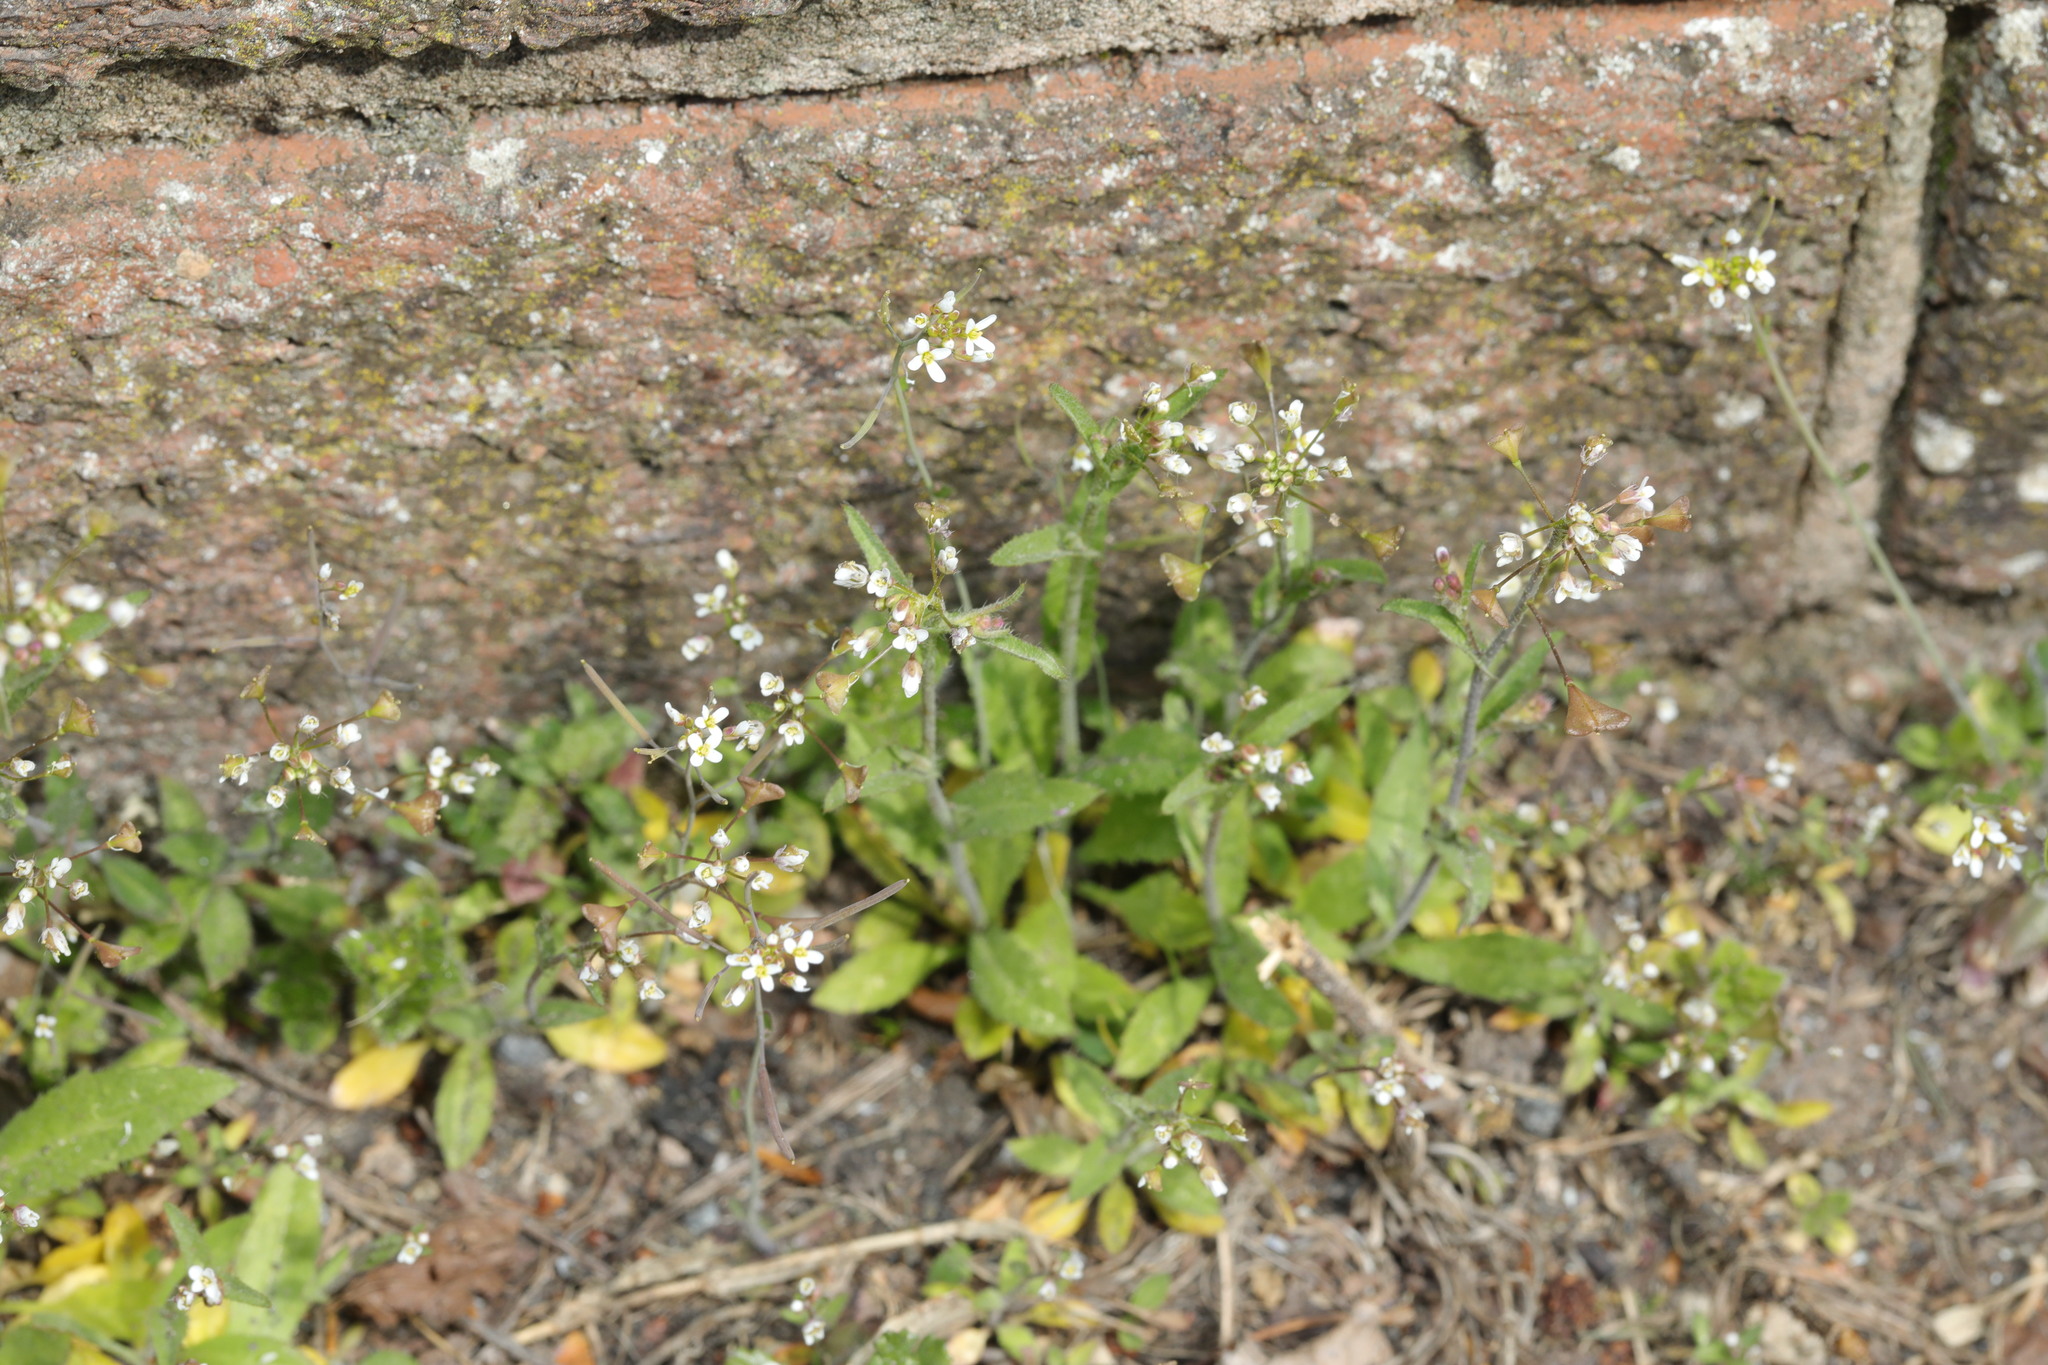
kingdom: Plantae
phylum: Tracheophyta
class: Magnoliopsida
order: Brassicales
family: Brassicaceae
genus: Arabidopsis
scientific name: Arabidopsis thaliana
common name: Thale cress
